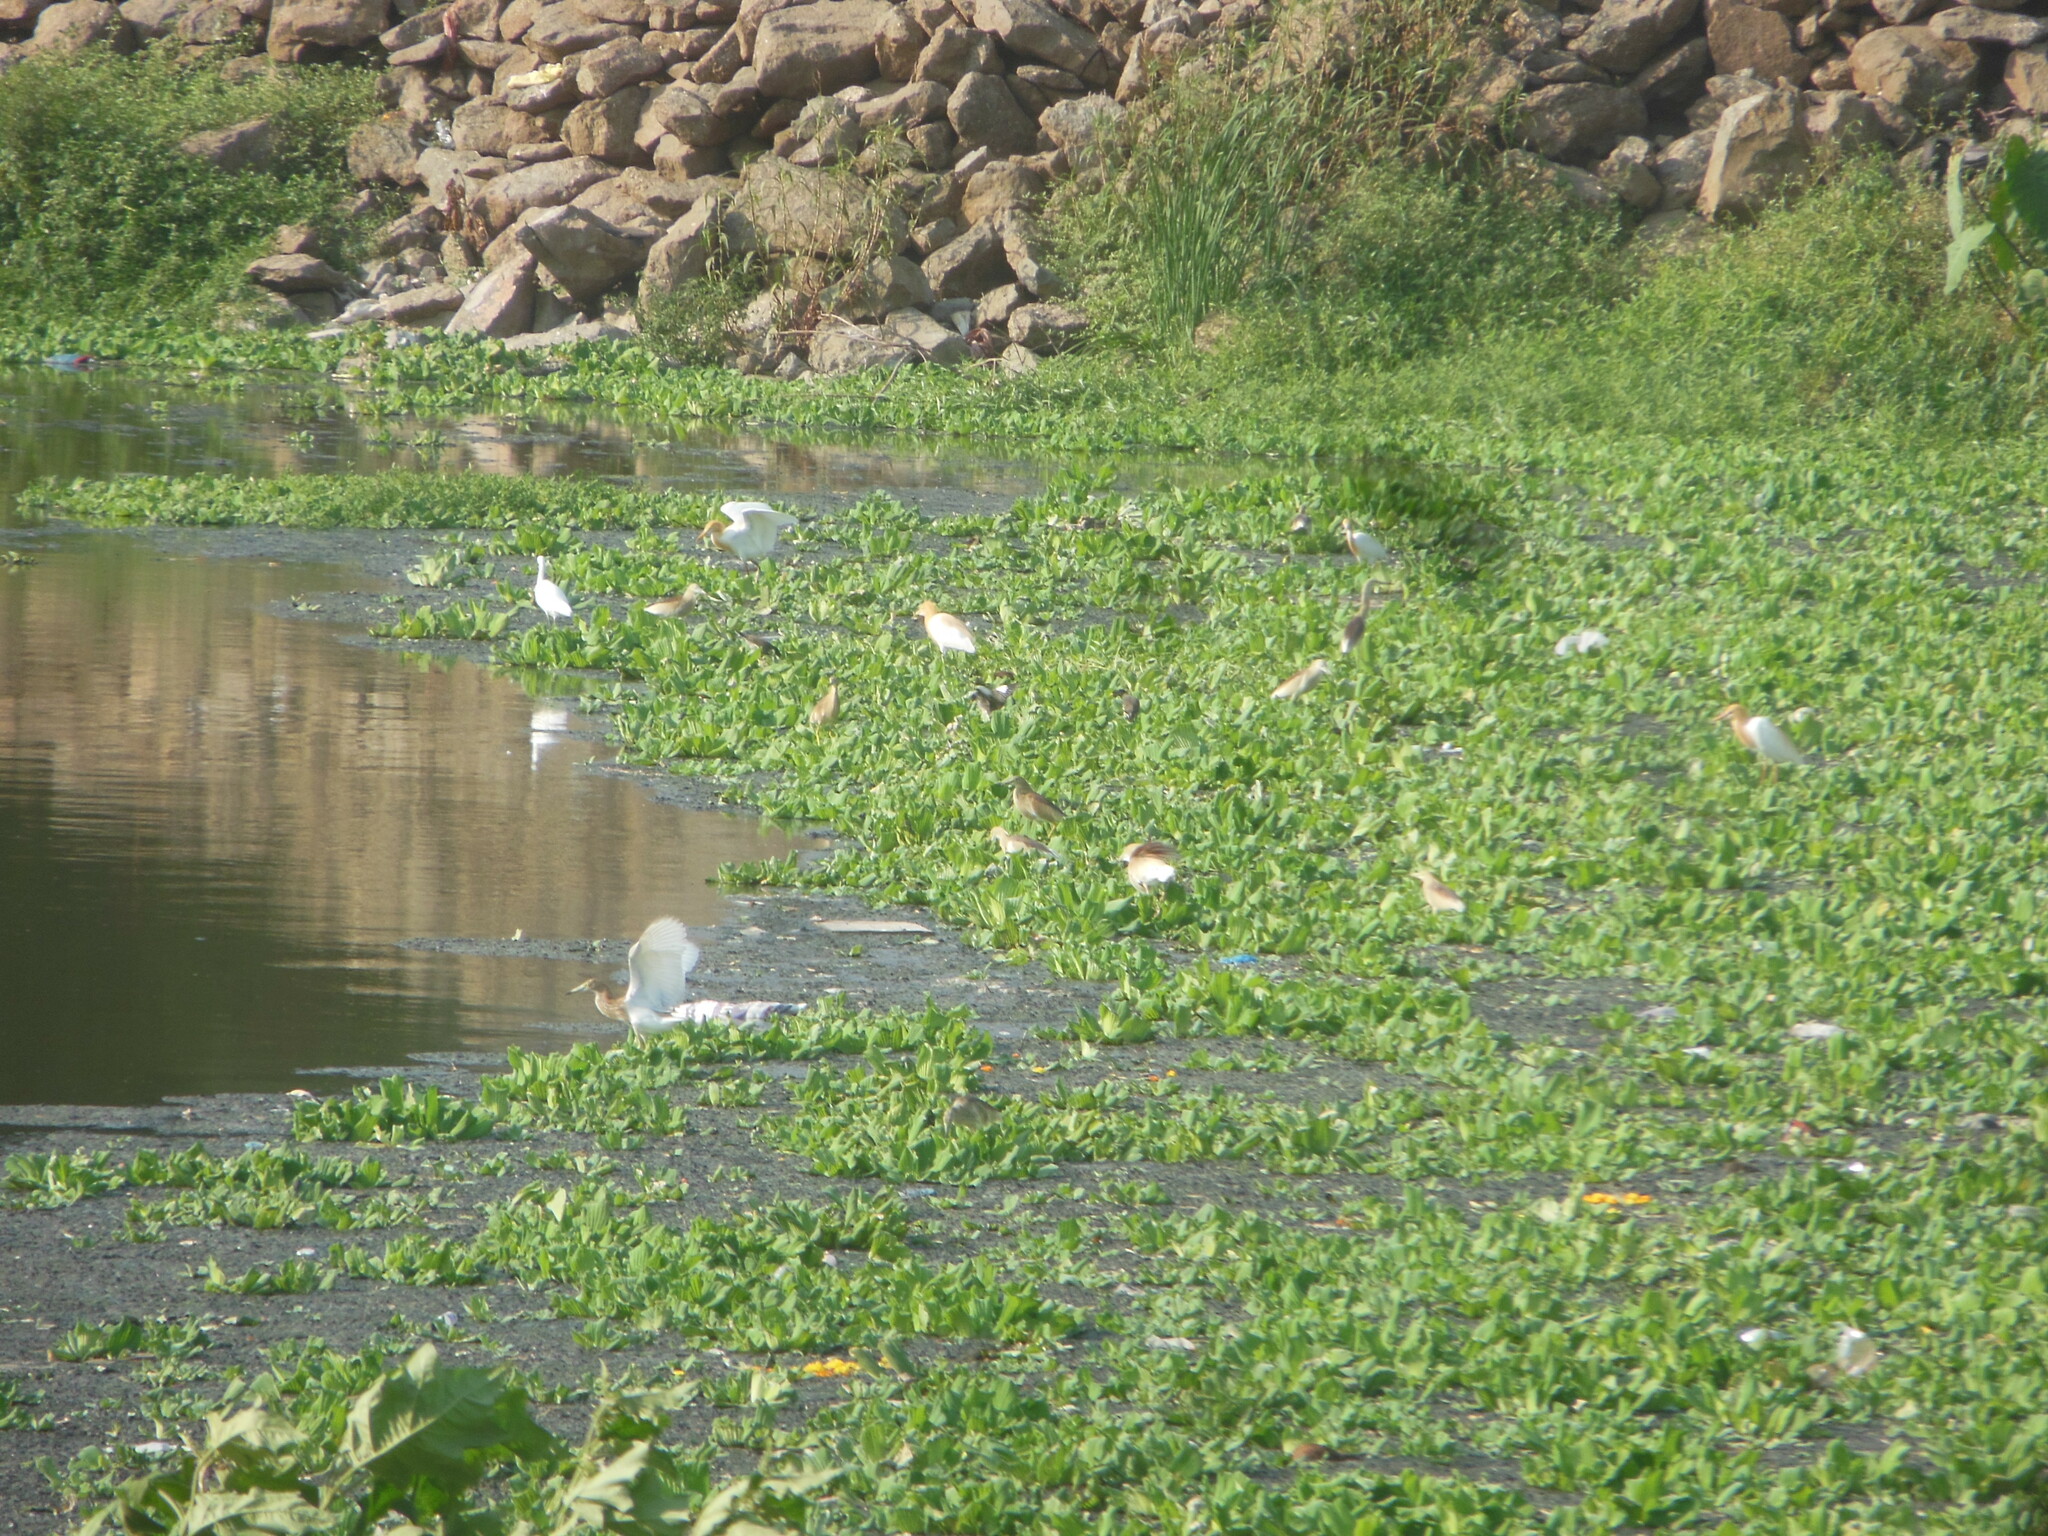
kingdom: Animalia
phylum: Chordata
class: Aves
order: Pelecaniformes
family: Ardeidae
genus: Ardeola
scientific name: Ardeola grayii
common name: Indian pond heron
